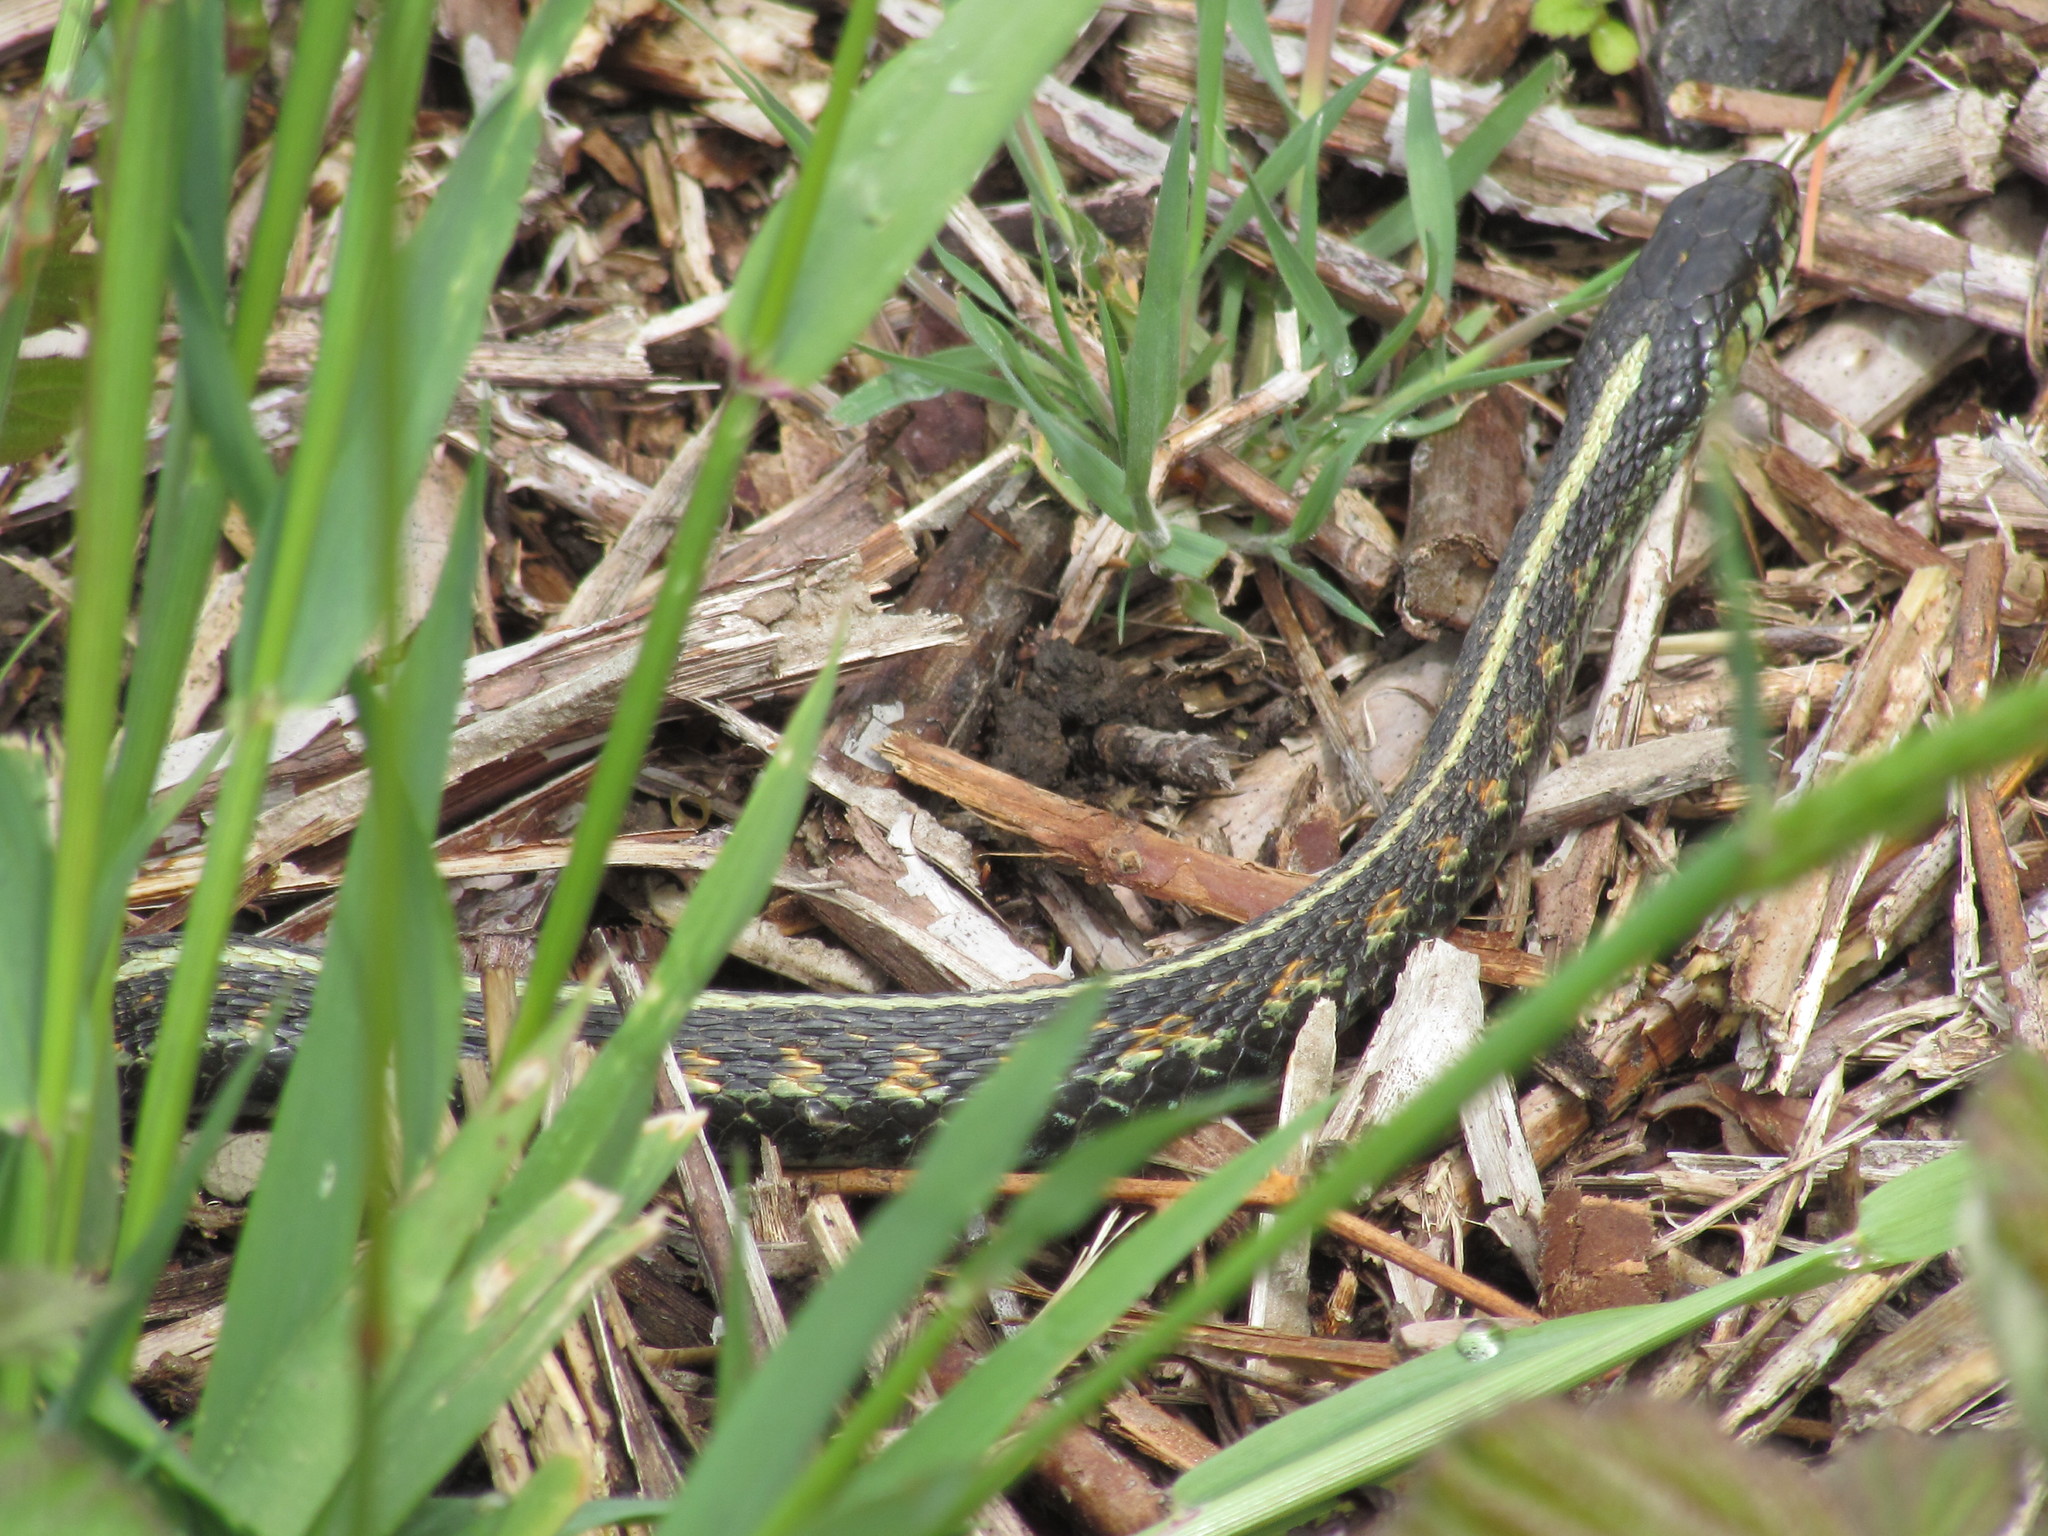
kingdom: Animalia
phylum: Chordata
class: Squamata
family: Colubridae
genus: Thamnophis
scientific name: Thamnophis sirtalis
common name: Common garter snake
